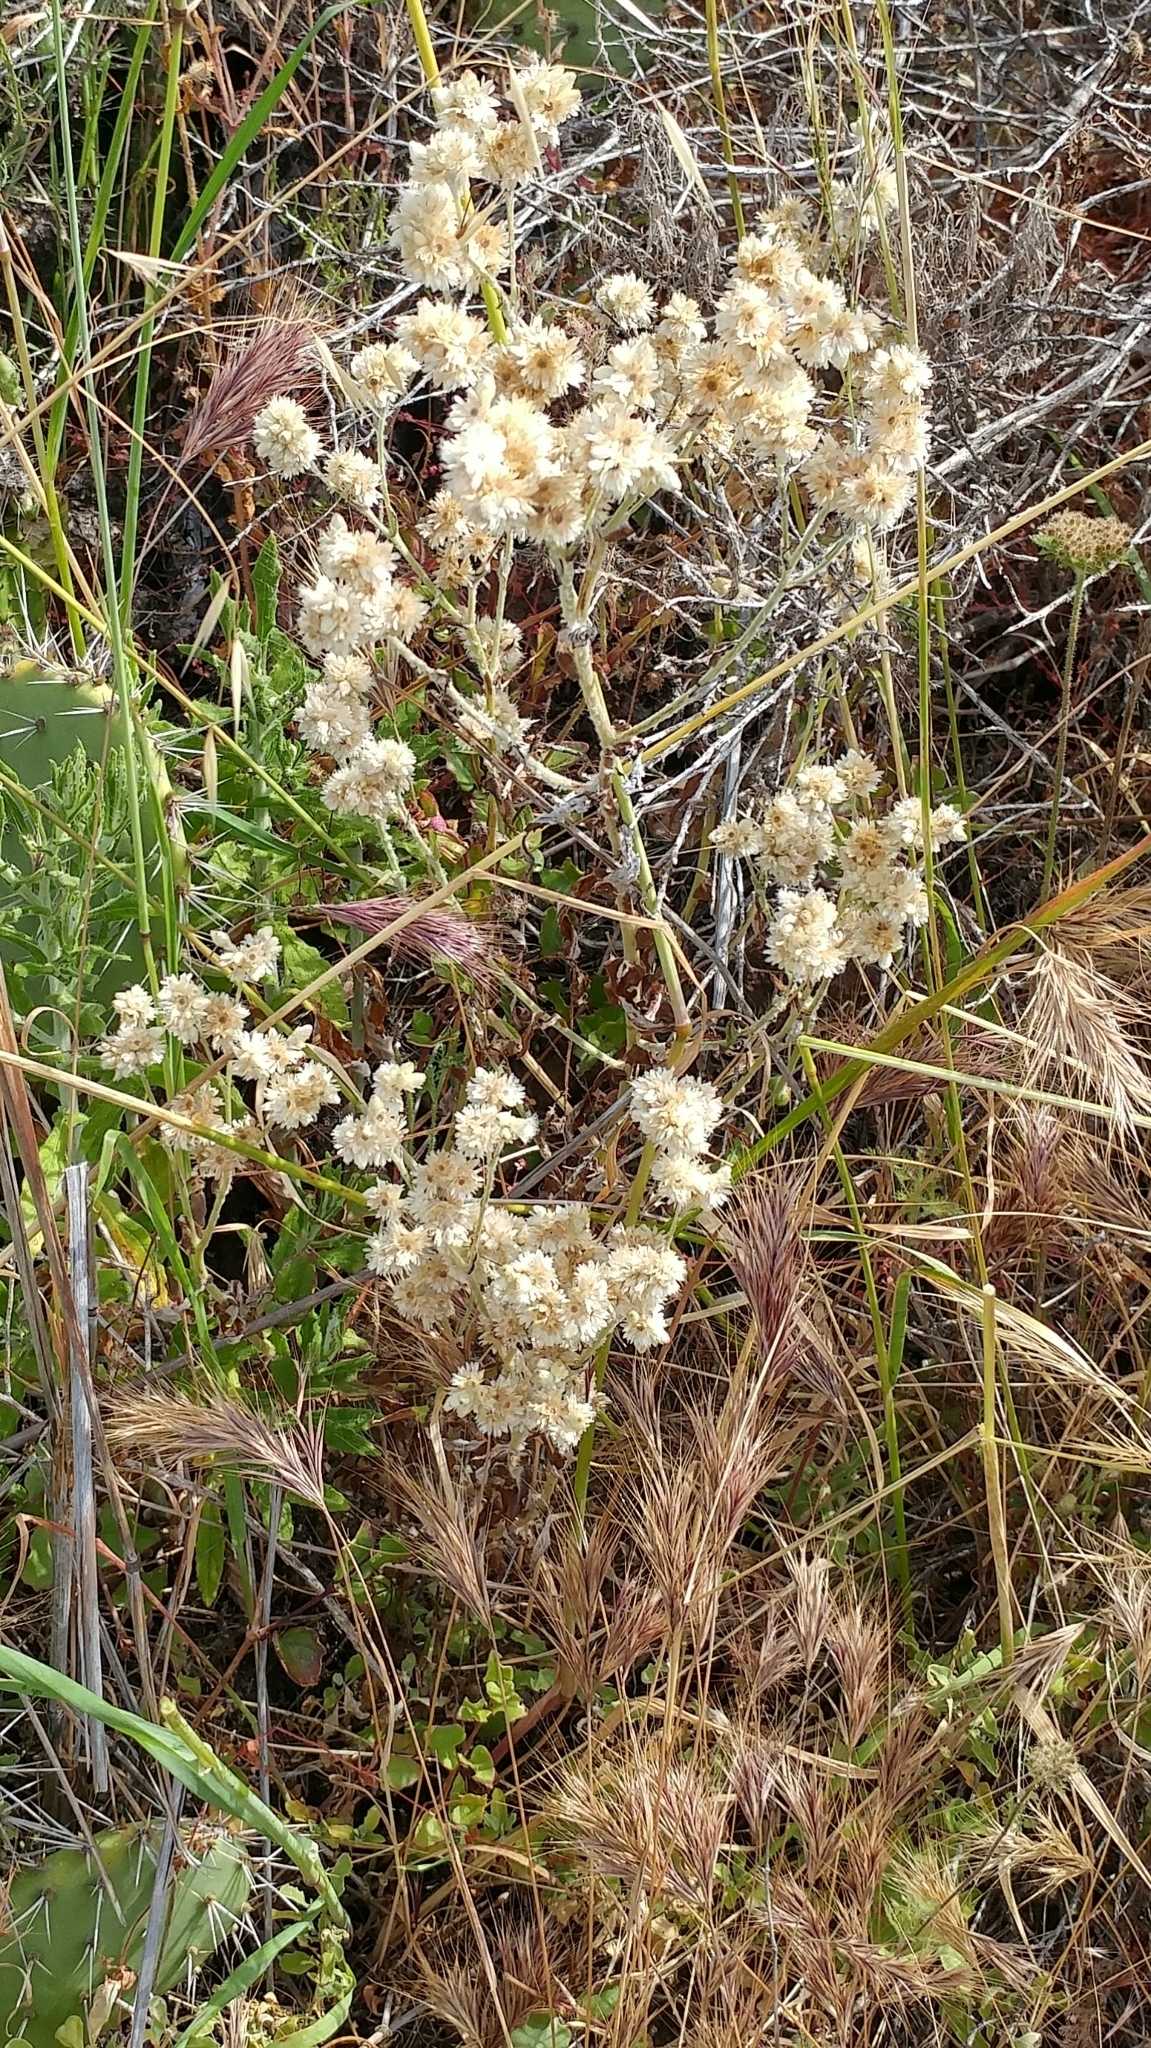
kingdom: Plantae
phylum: Tracheophyta
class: Magnoliopsida
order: Asterales
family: Asteraceae
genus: Pseudognaphalium
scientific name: Pseudognaphalium biolettii
